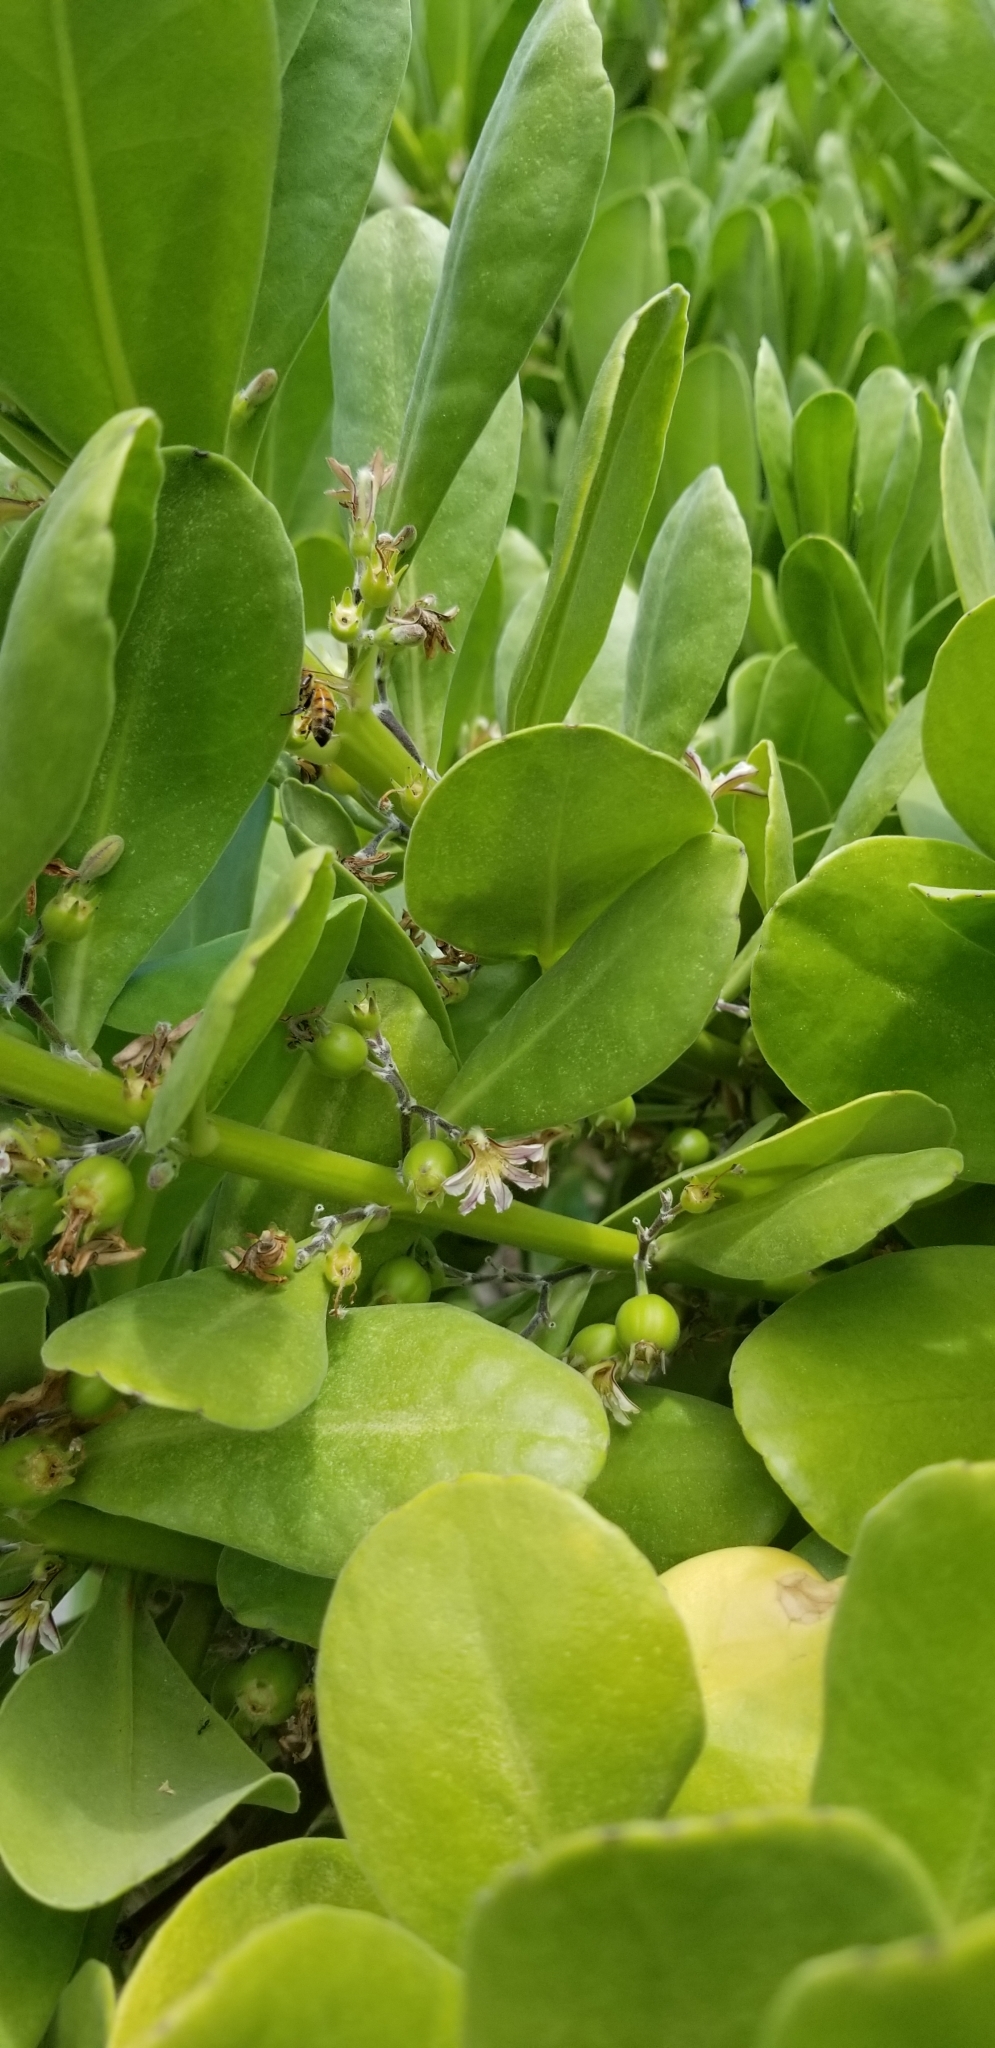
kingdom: Animalia
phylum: Arthropoda
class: Insecta
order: Hymenoptera
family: Apidae
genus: Apis
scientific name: Apis mellifera
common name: Honey bee
